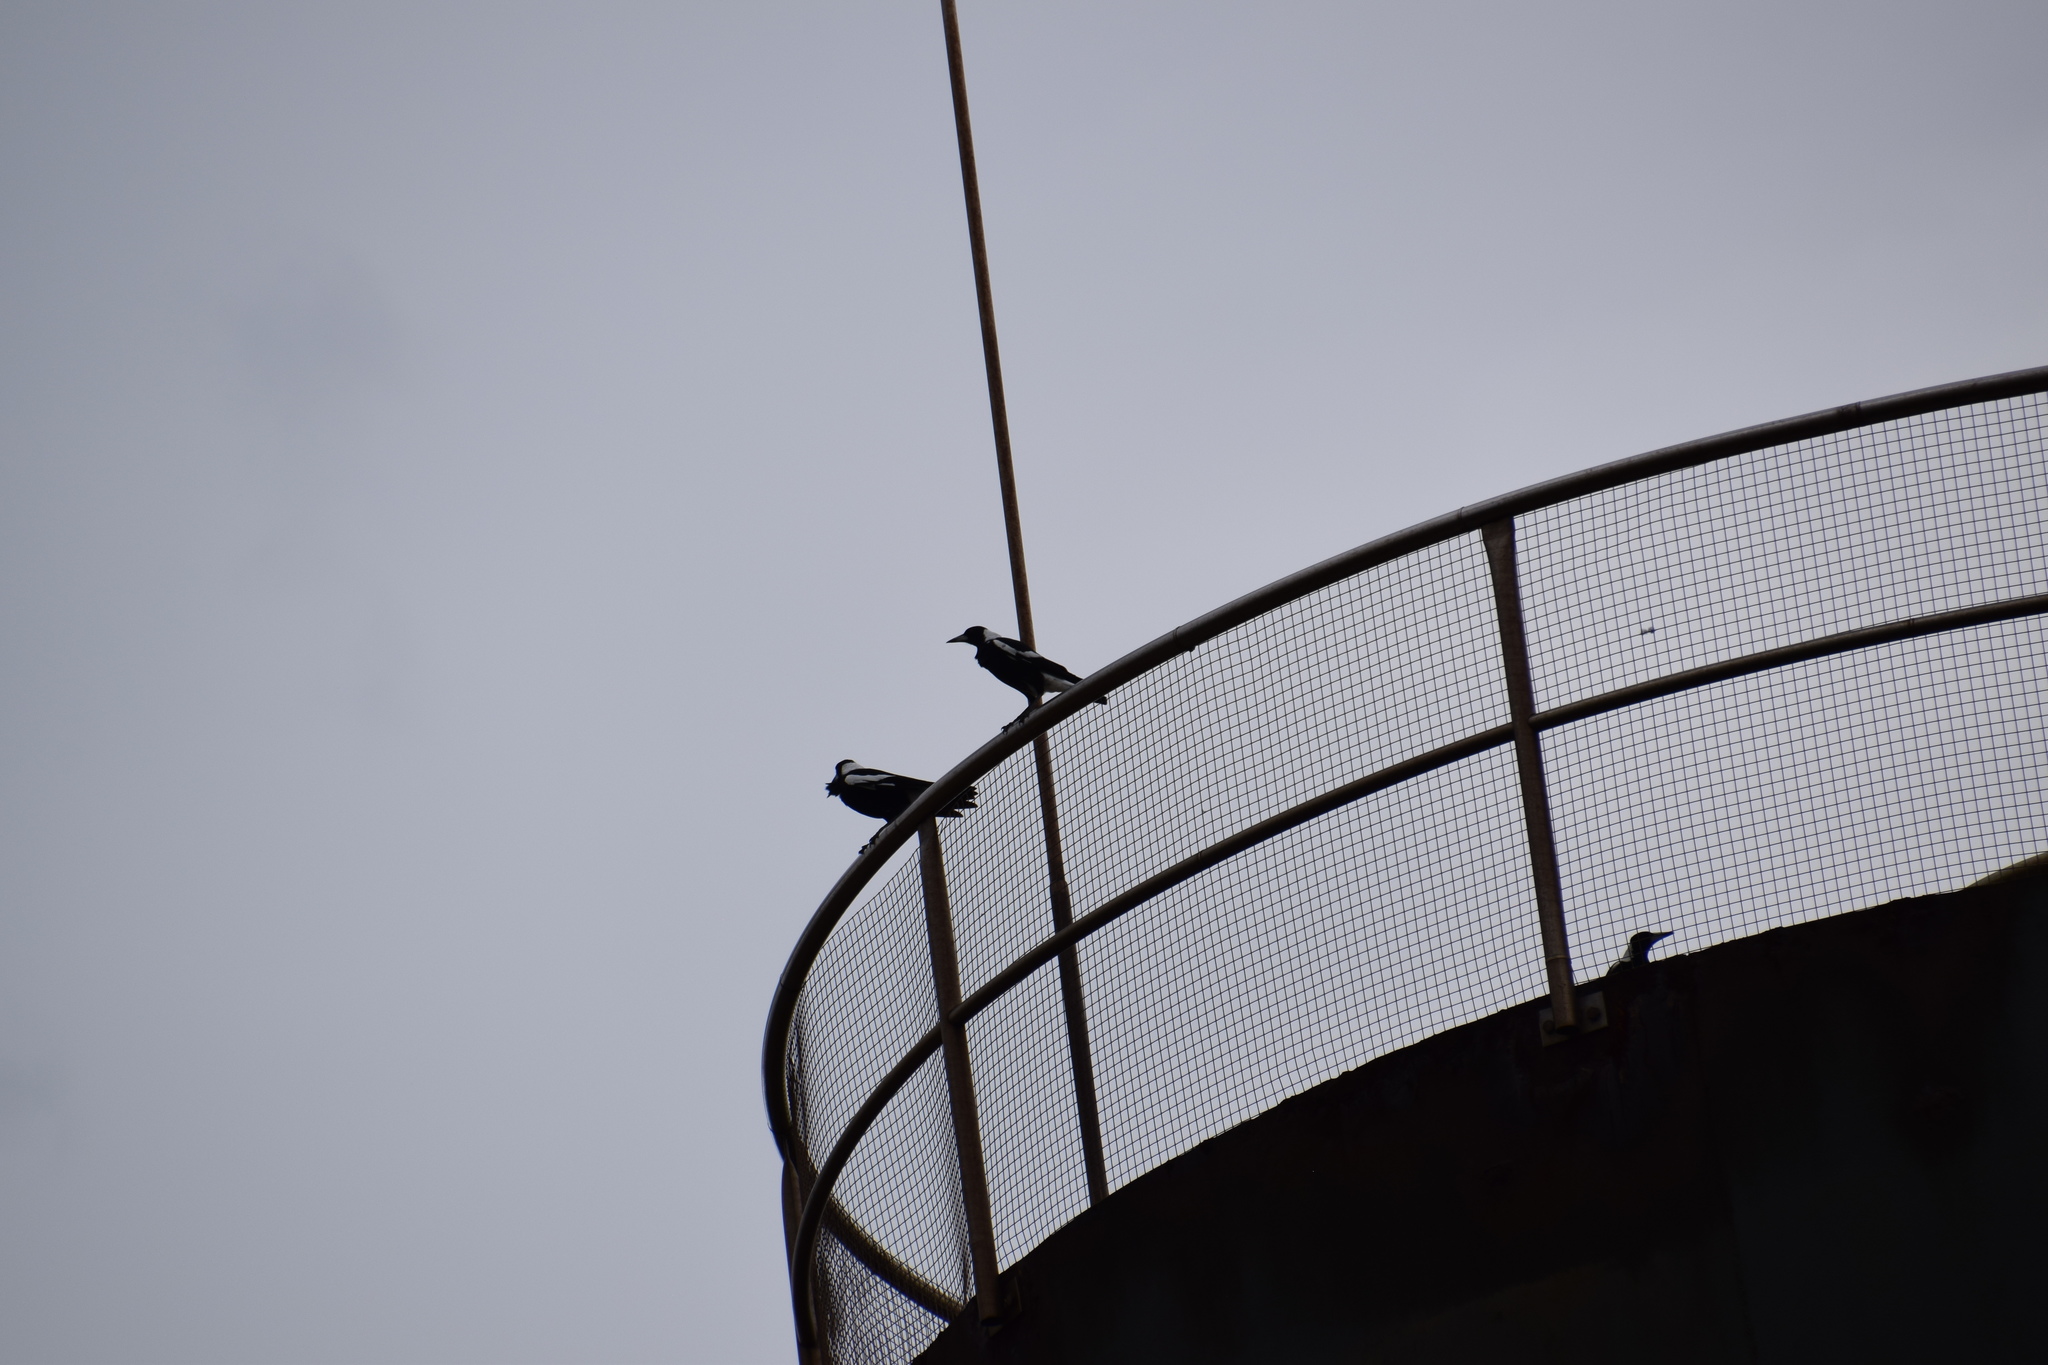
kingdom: Animalia
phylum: Chordata
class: Aves
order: Passeriformes
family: Cracticidae
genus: Gymnorhina
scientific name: Gymnorhina tibicen
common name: Australian magpie
